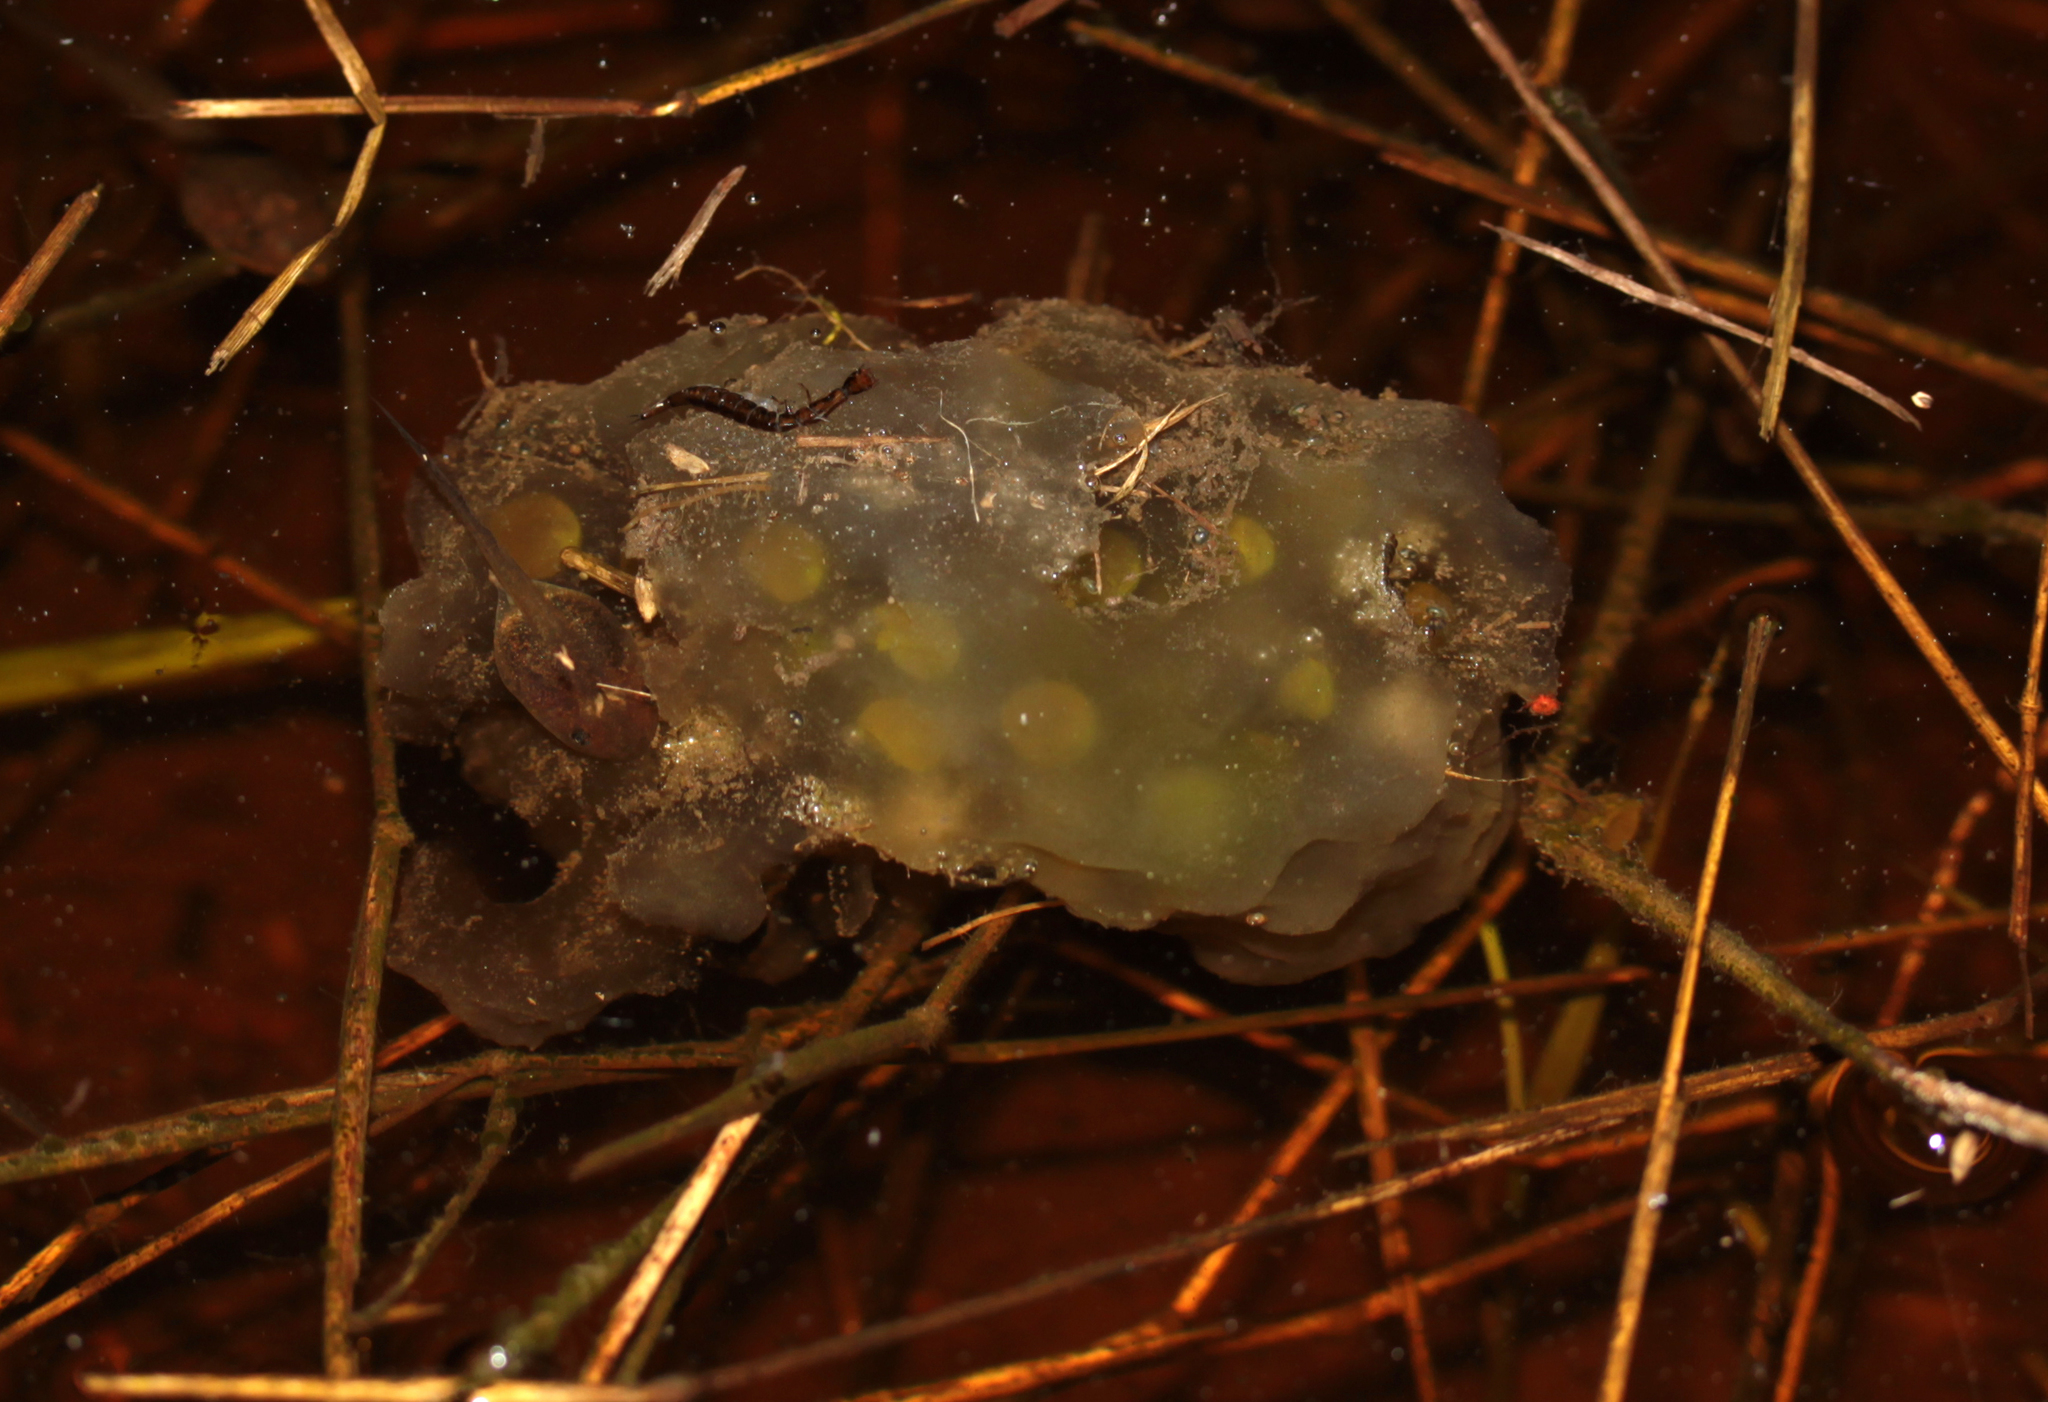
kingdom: Animalia
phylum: Chordata
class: Amphibia
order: Caudata
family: Ambystomatidae
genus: Ambystoma
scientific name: Ambystoma maculatum
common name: Spotted salamander
